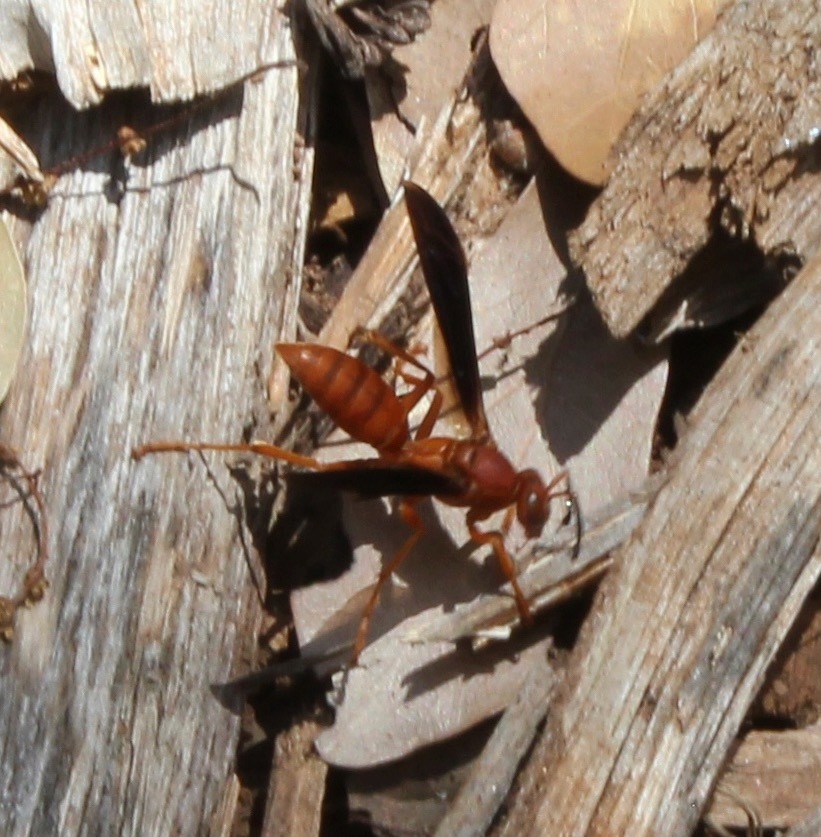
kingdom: Animalia
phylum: Arthropoda
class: Insecta
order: Hymenoptera
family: Eumenidae
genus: Polistes
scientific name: Polistes
